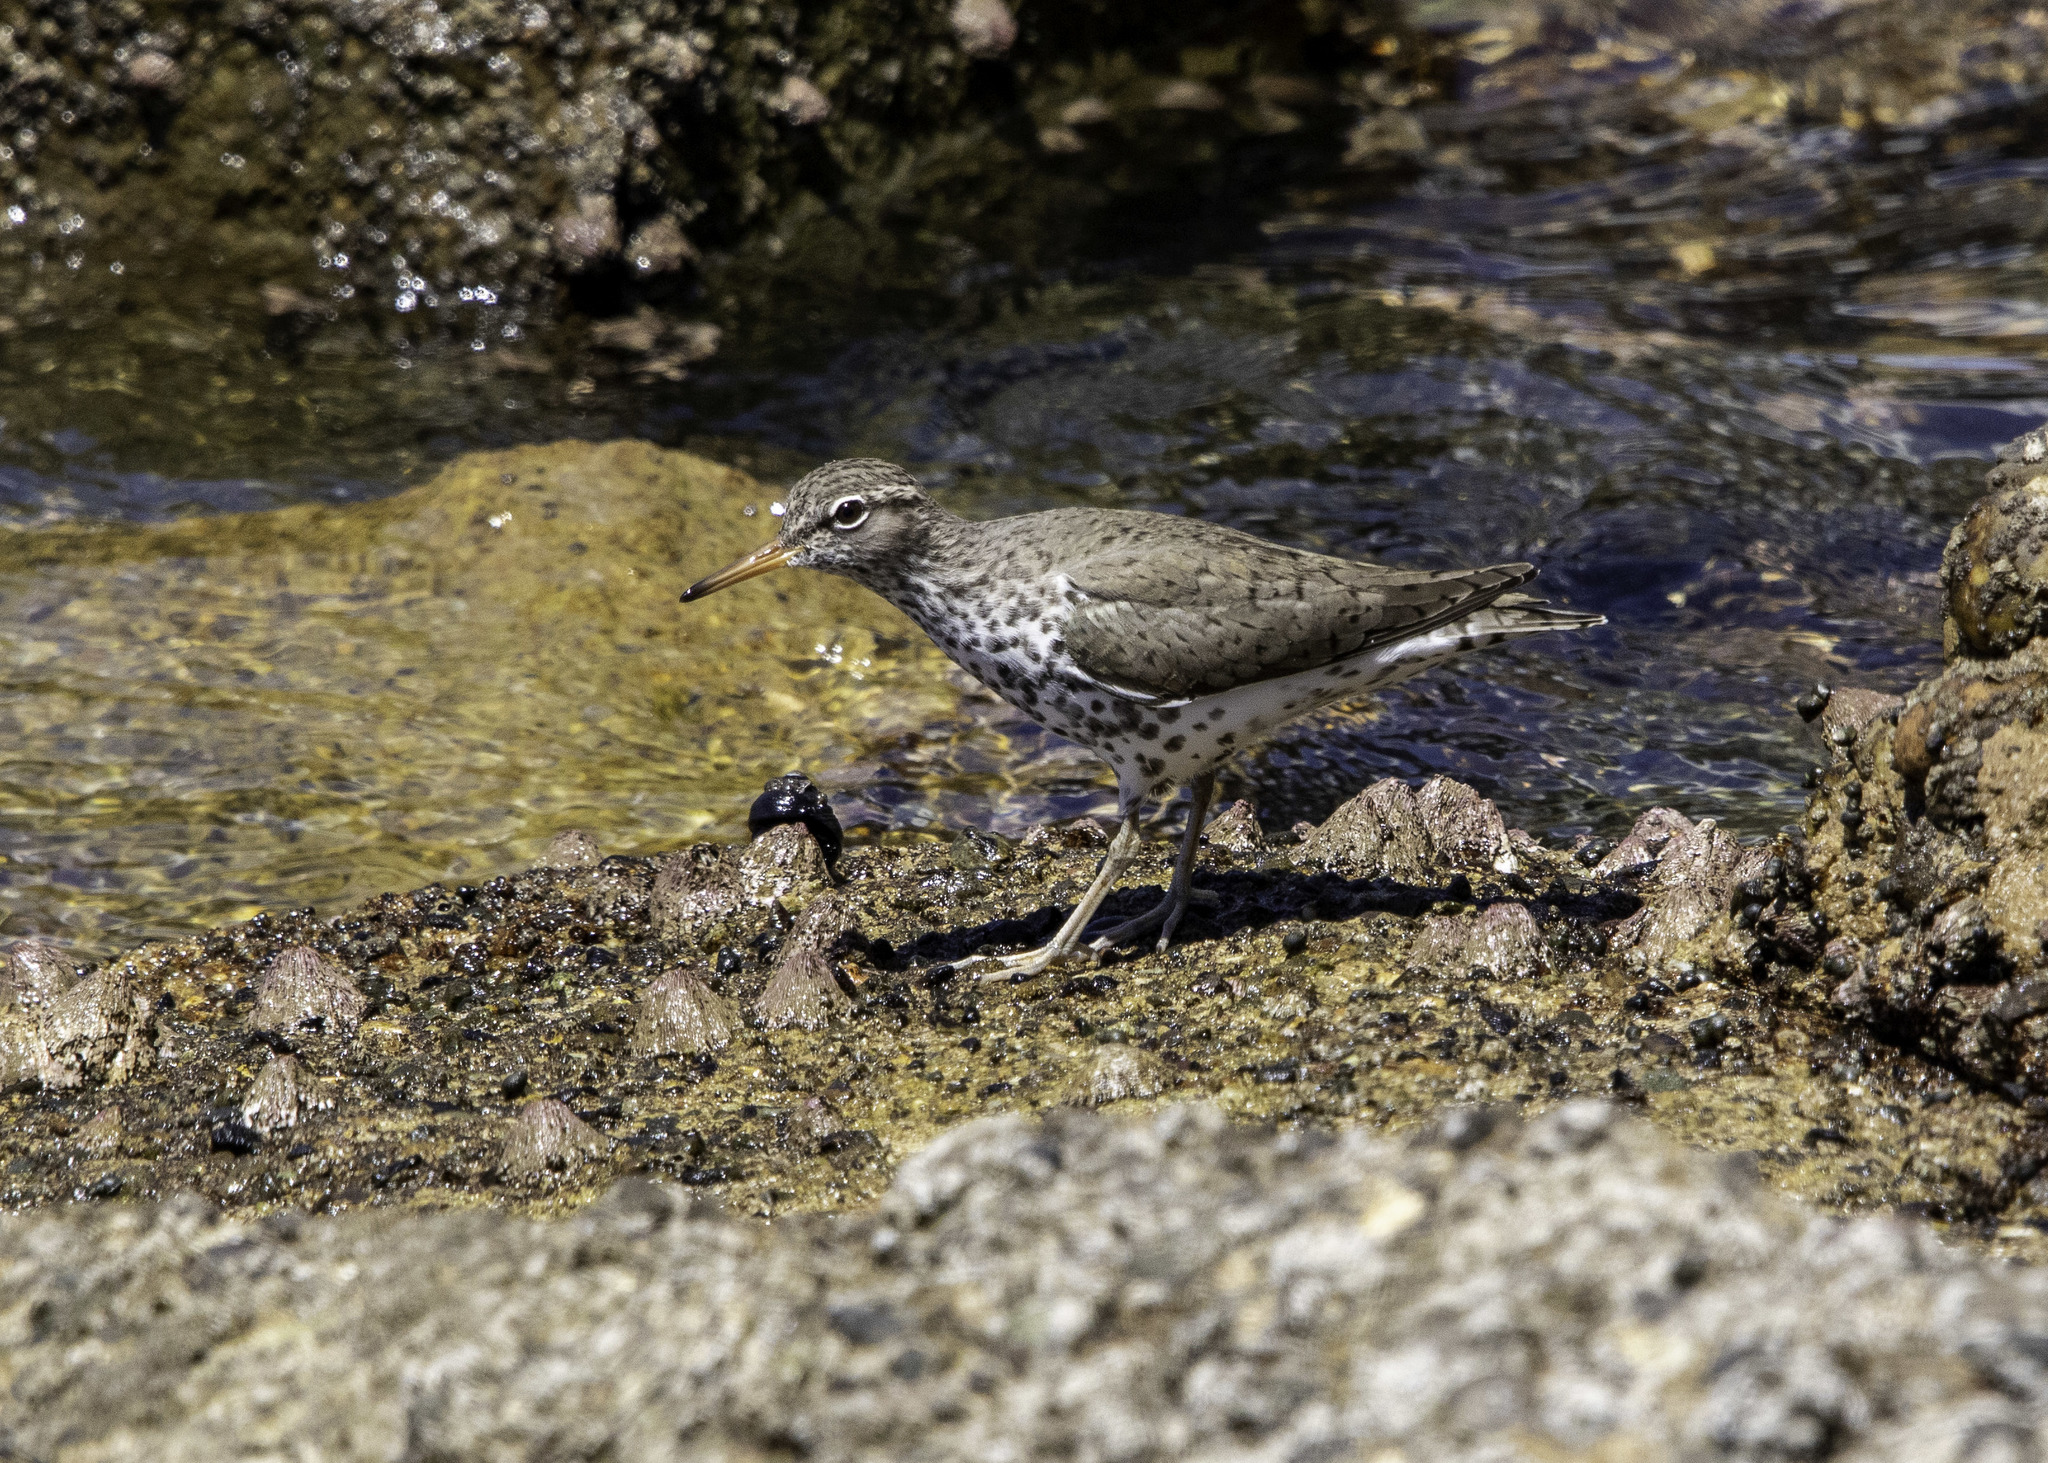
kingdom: Animalia
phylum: Chordata
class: Aves
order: Charadriiformes
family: Scolopacidae
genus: Actitis
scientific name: Actitis macularius
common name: Spotted sandpiper
